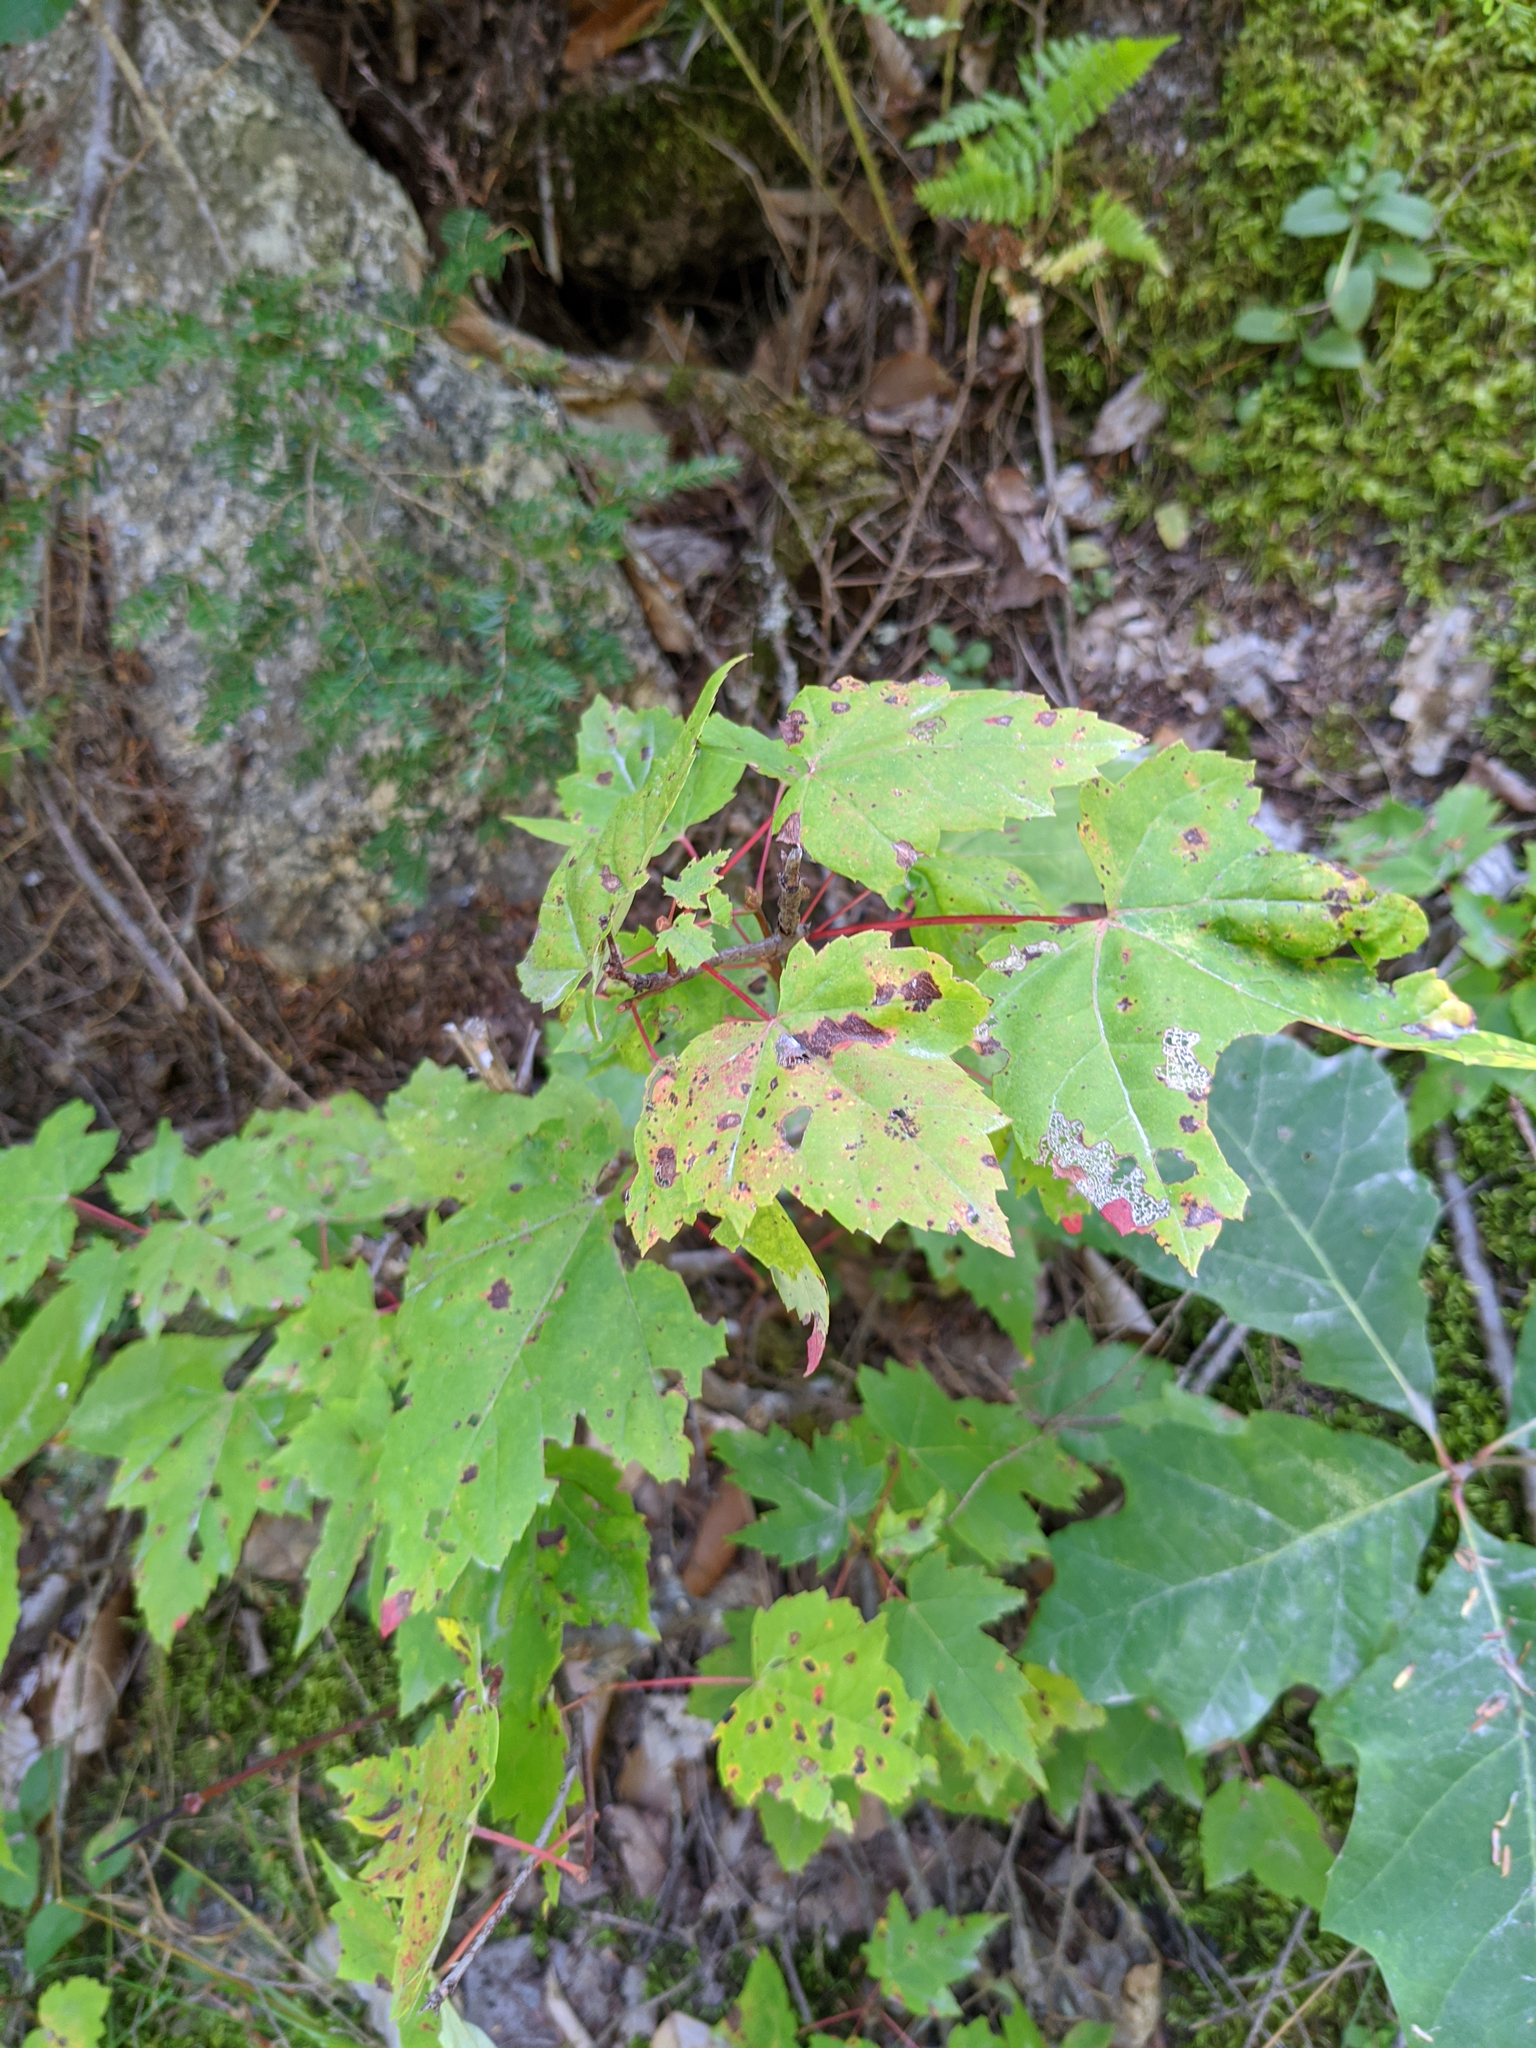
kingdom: Plantae
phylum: Tracheophyta
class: Magnoliopsida
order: Sapindales
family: Sapindaceae
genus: Acer
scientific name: Acer rubrum
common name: Red maple
